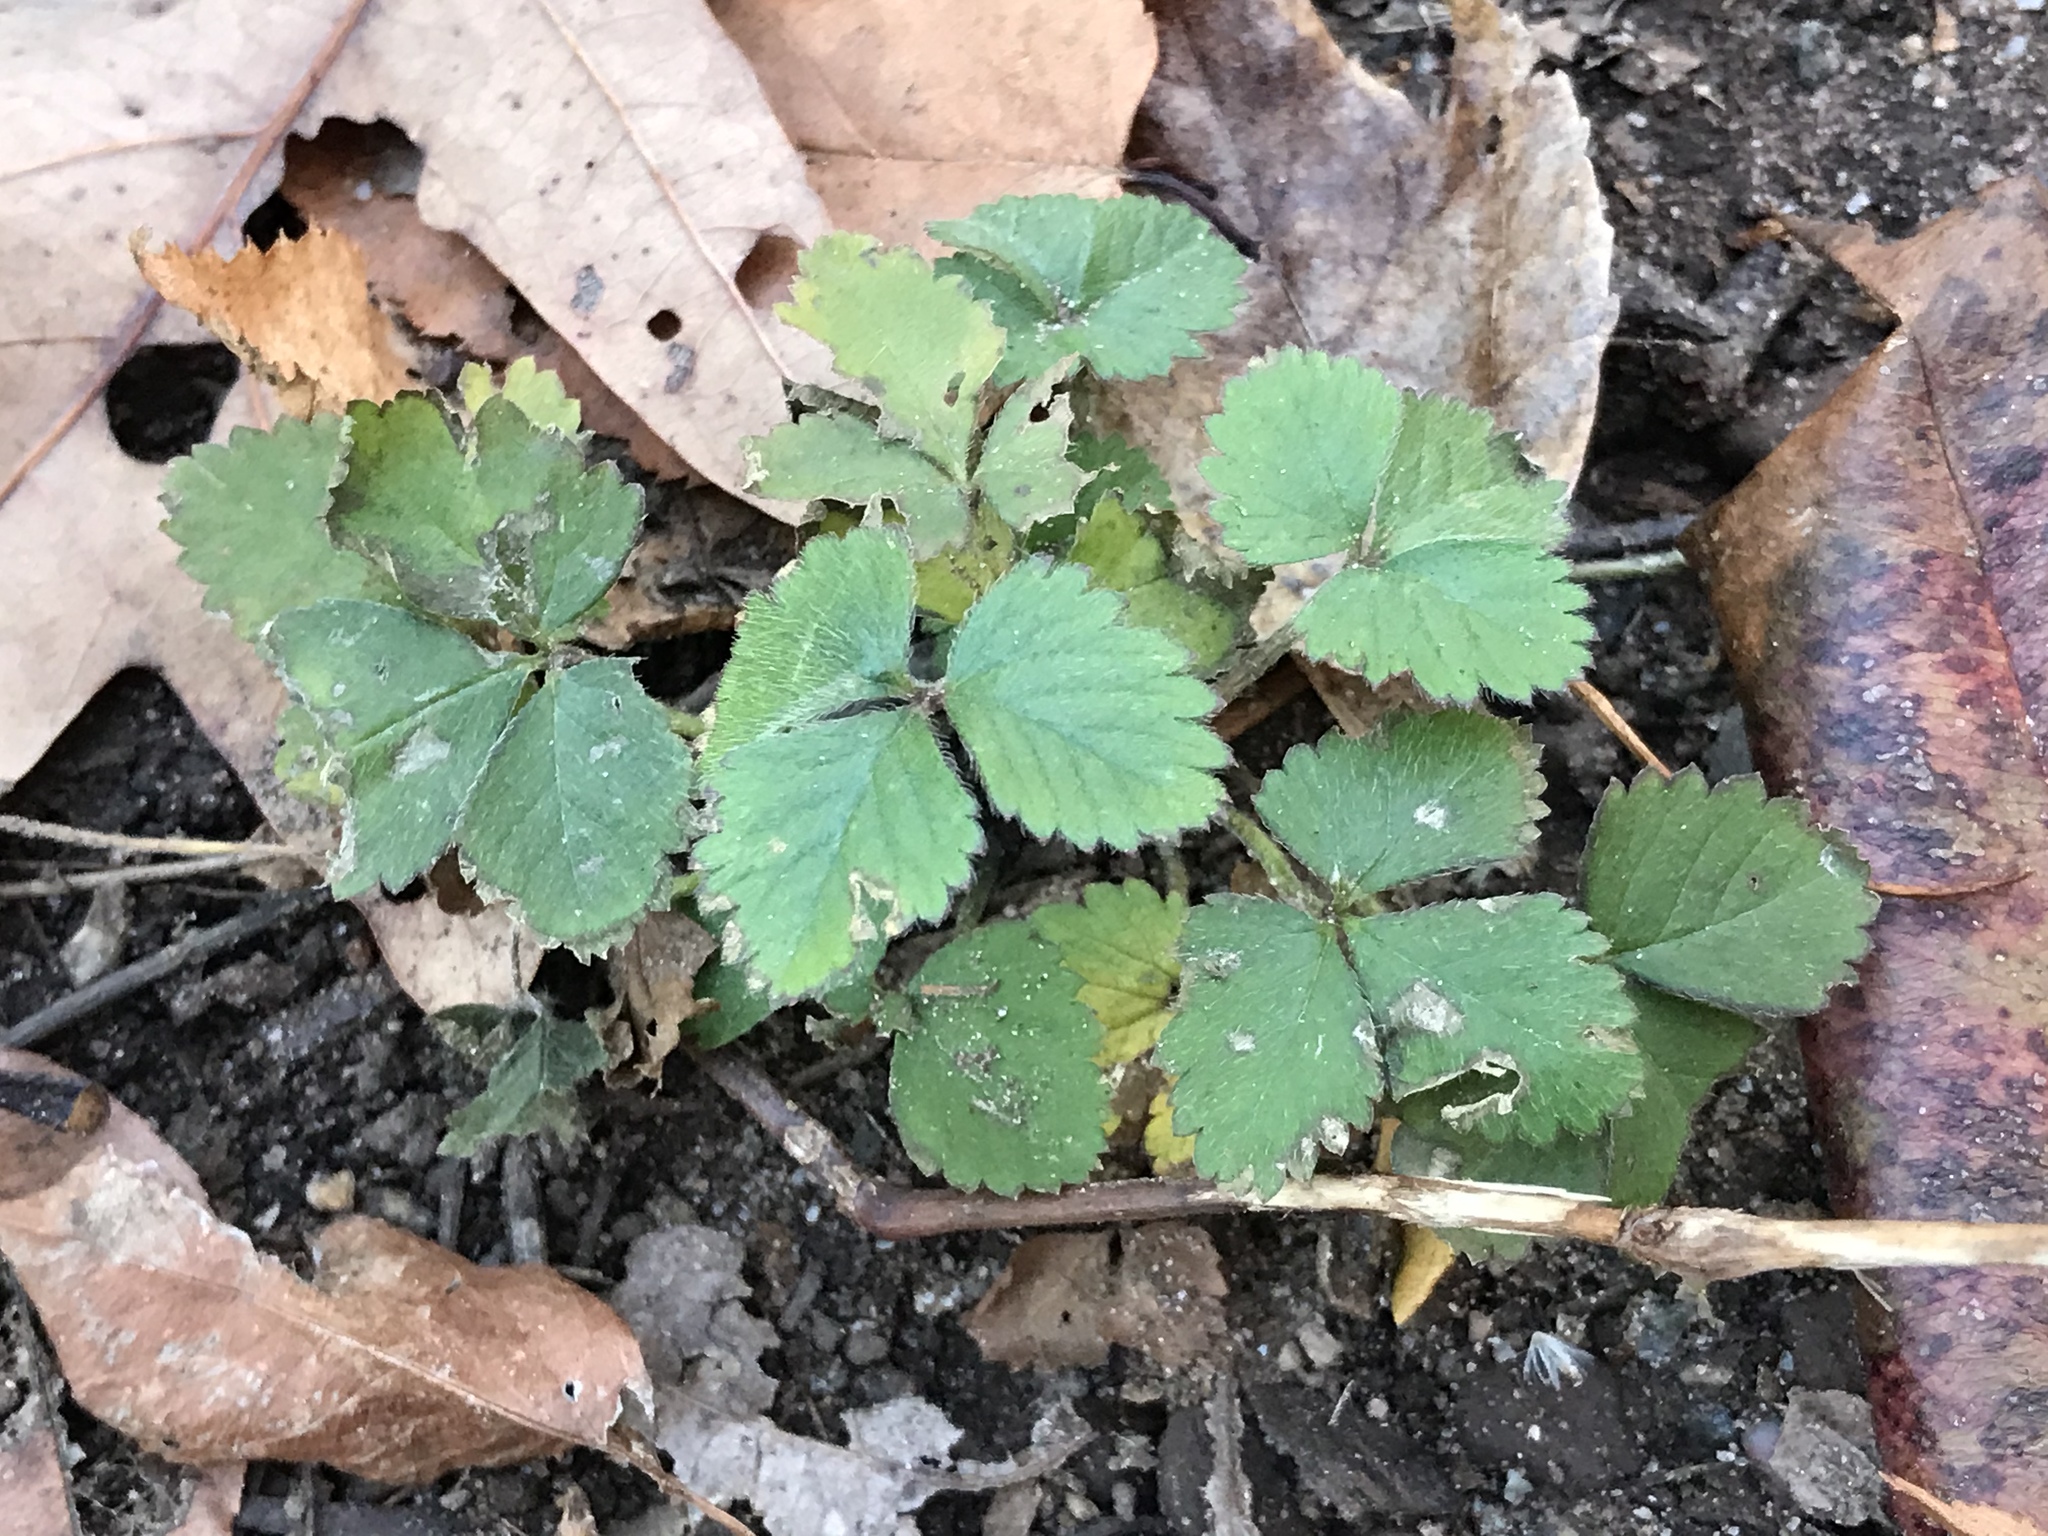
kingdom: Plantae
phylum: Tracheophyta
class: Magnoliopsida
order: Rosales
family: Rosaceae
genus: Potentilla
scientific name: Potentilla indica
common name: Yellow-flowered strawberry
